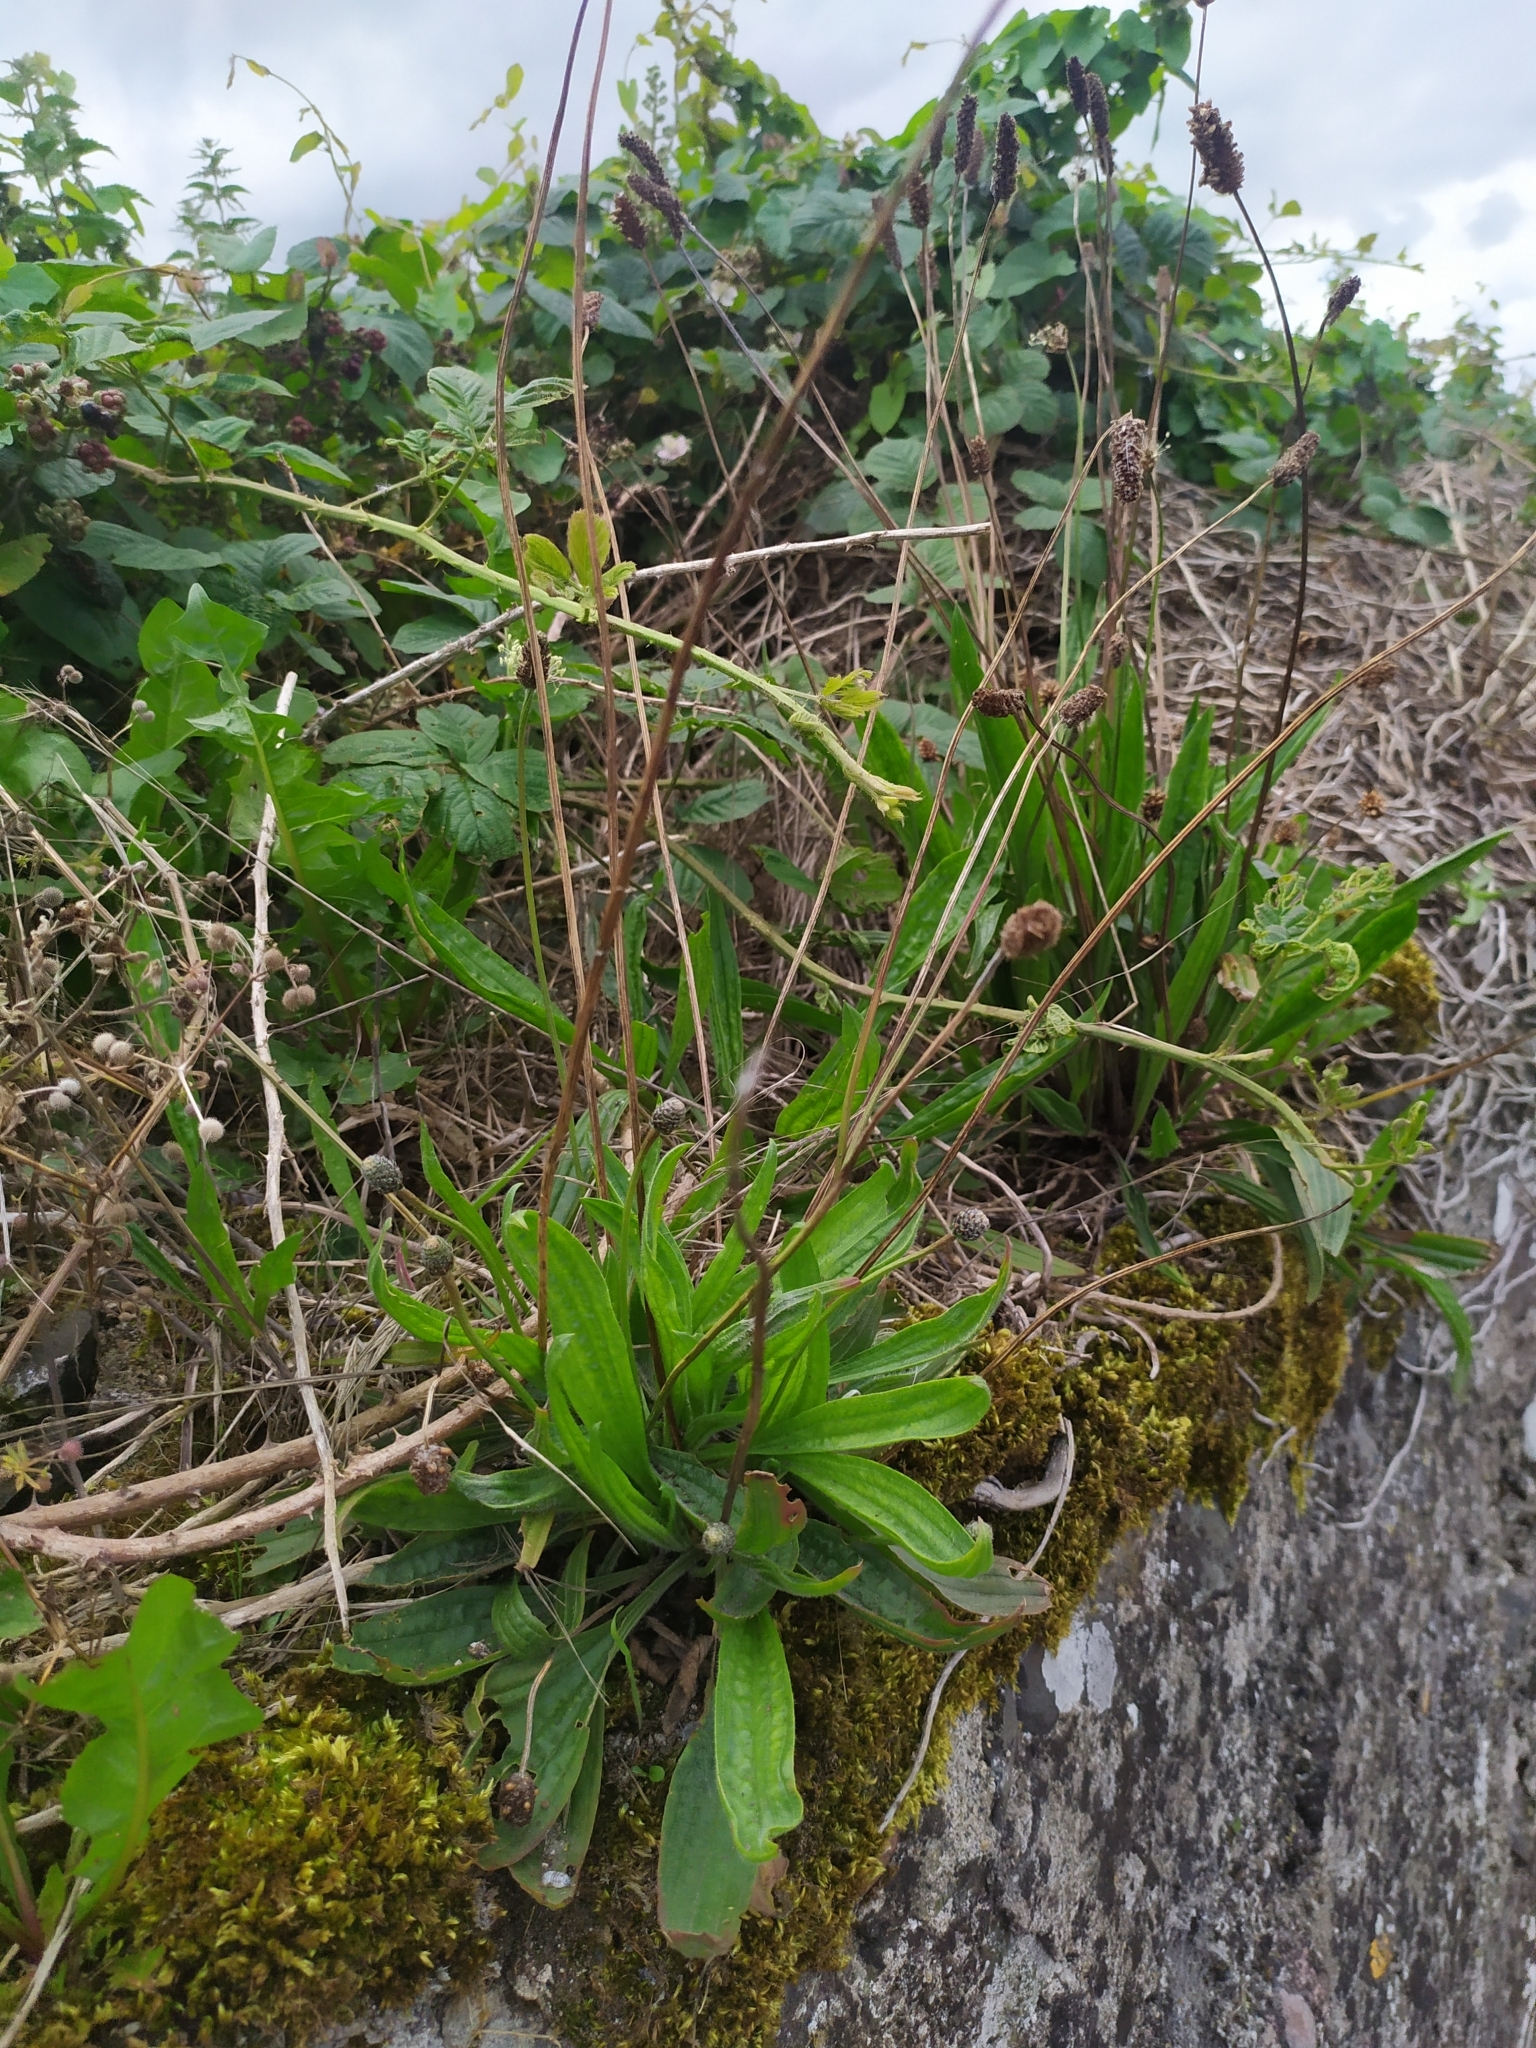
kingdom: Plantae
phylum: Tracheophyta
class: Magnoliopsida
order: Lamiales
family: Plantaginaceae
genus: Plantago
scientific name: Plantago lanceolata
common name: Ribwort plantain
